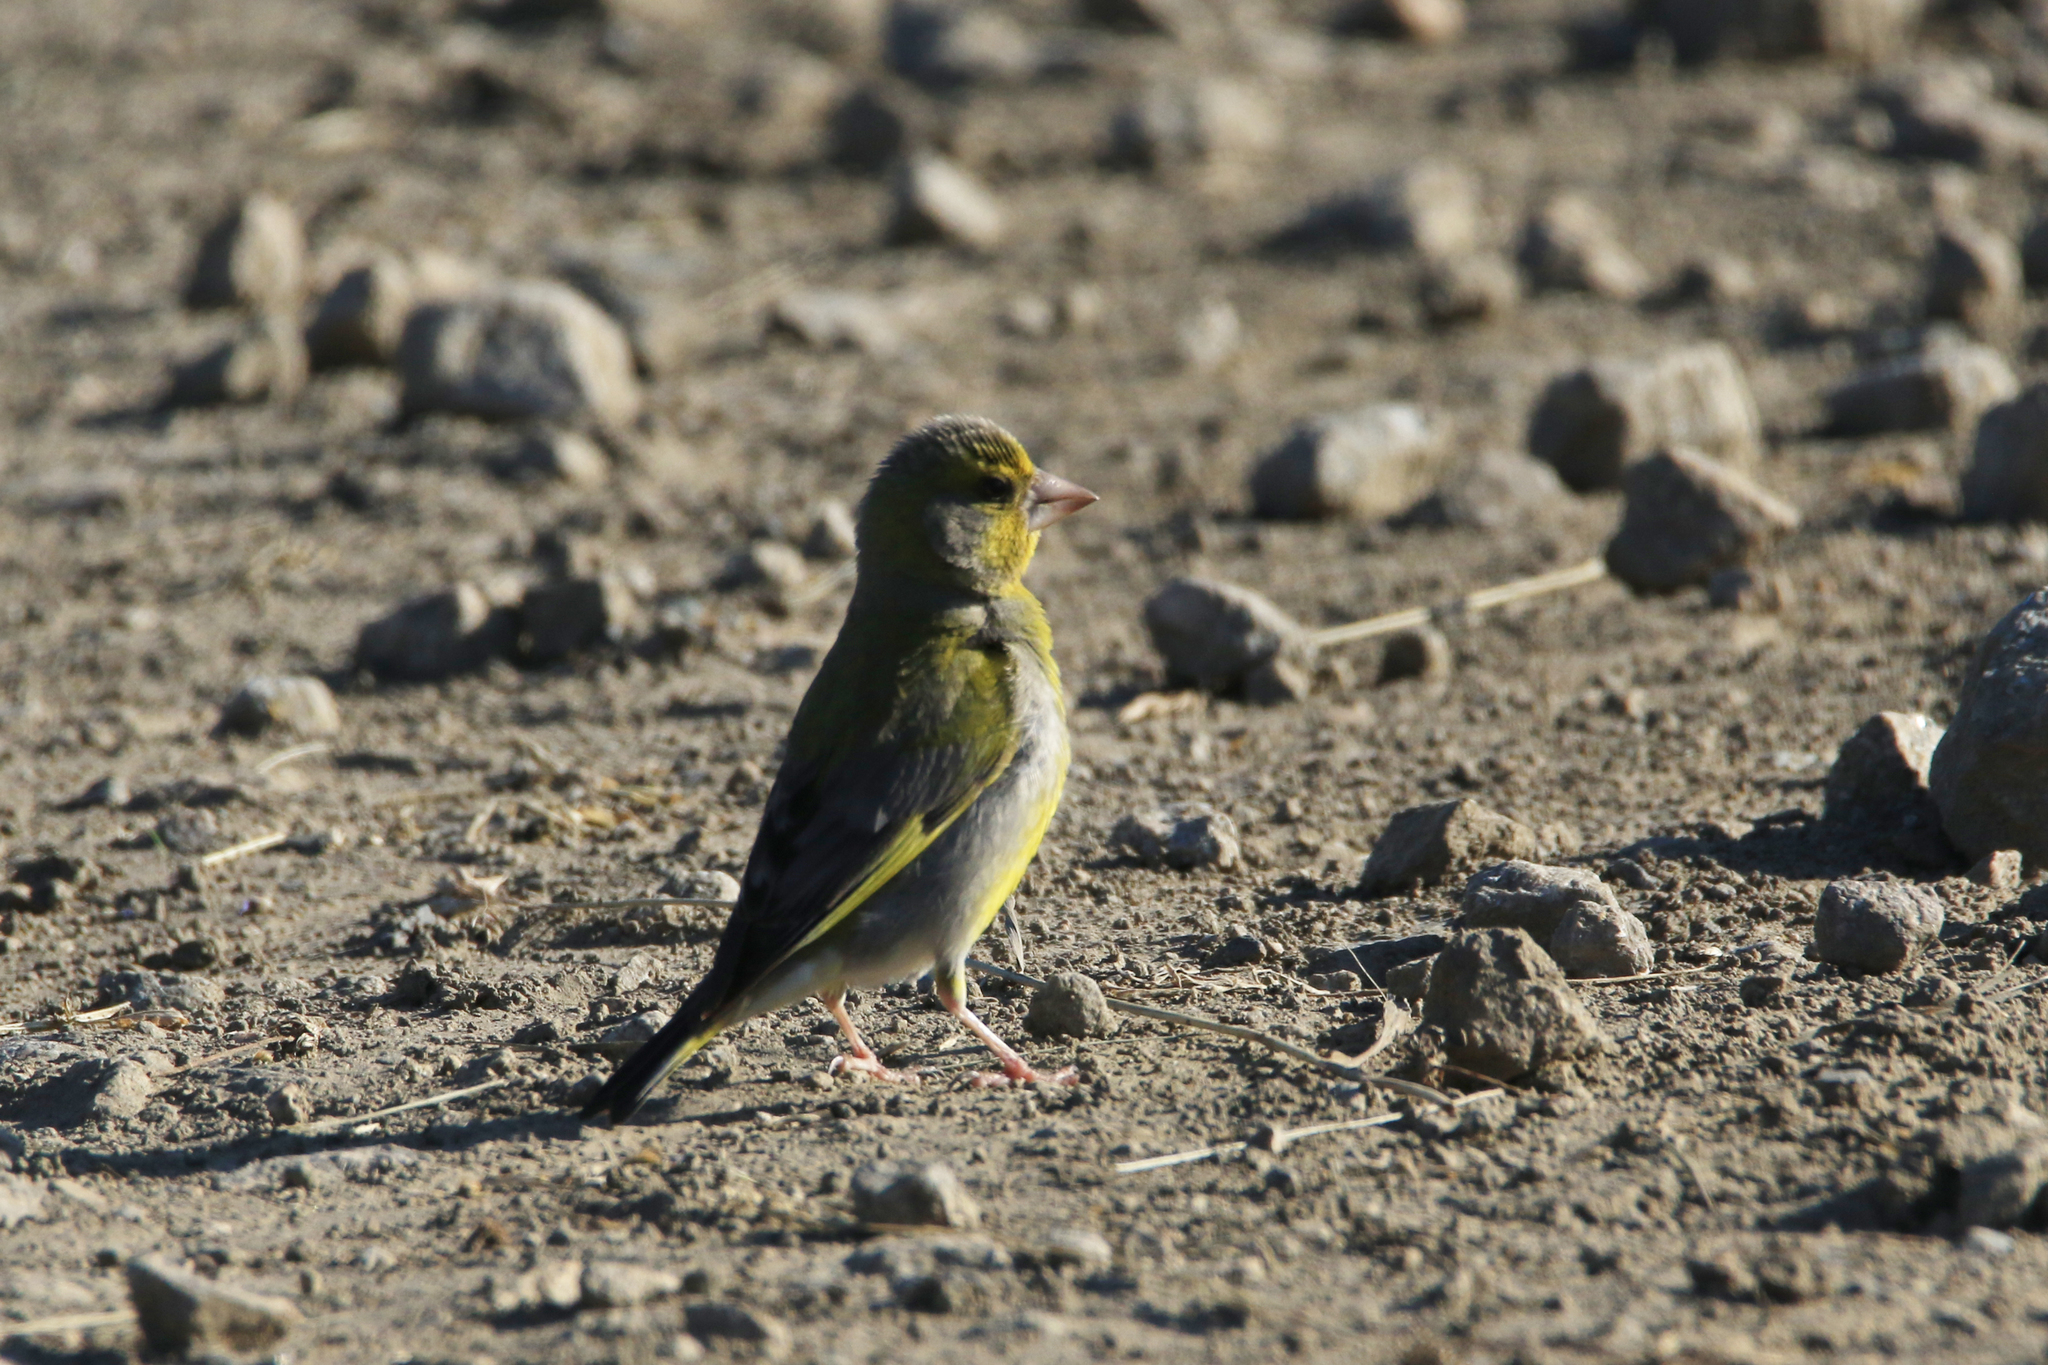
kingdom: Plantae
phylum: Tracheophyta
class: Liliopsida
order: Poales
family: Poaceae
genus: Chloris
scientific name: Chloris chloris
